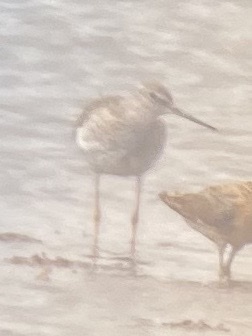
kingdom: Animalia
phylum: Chordata
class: Aves
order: Charadriiformes
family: Scolopacidae
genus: Tringa
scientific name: Tringa melanoleuca
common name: Greater yellowlegs
